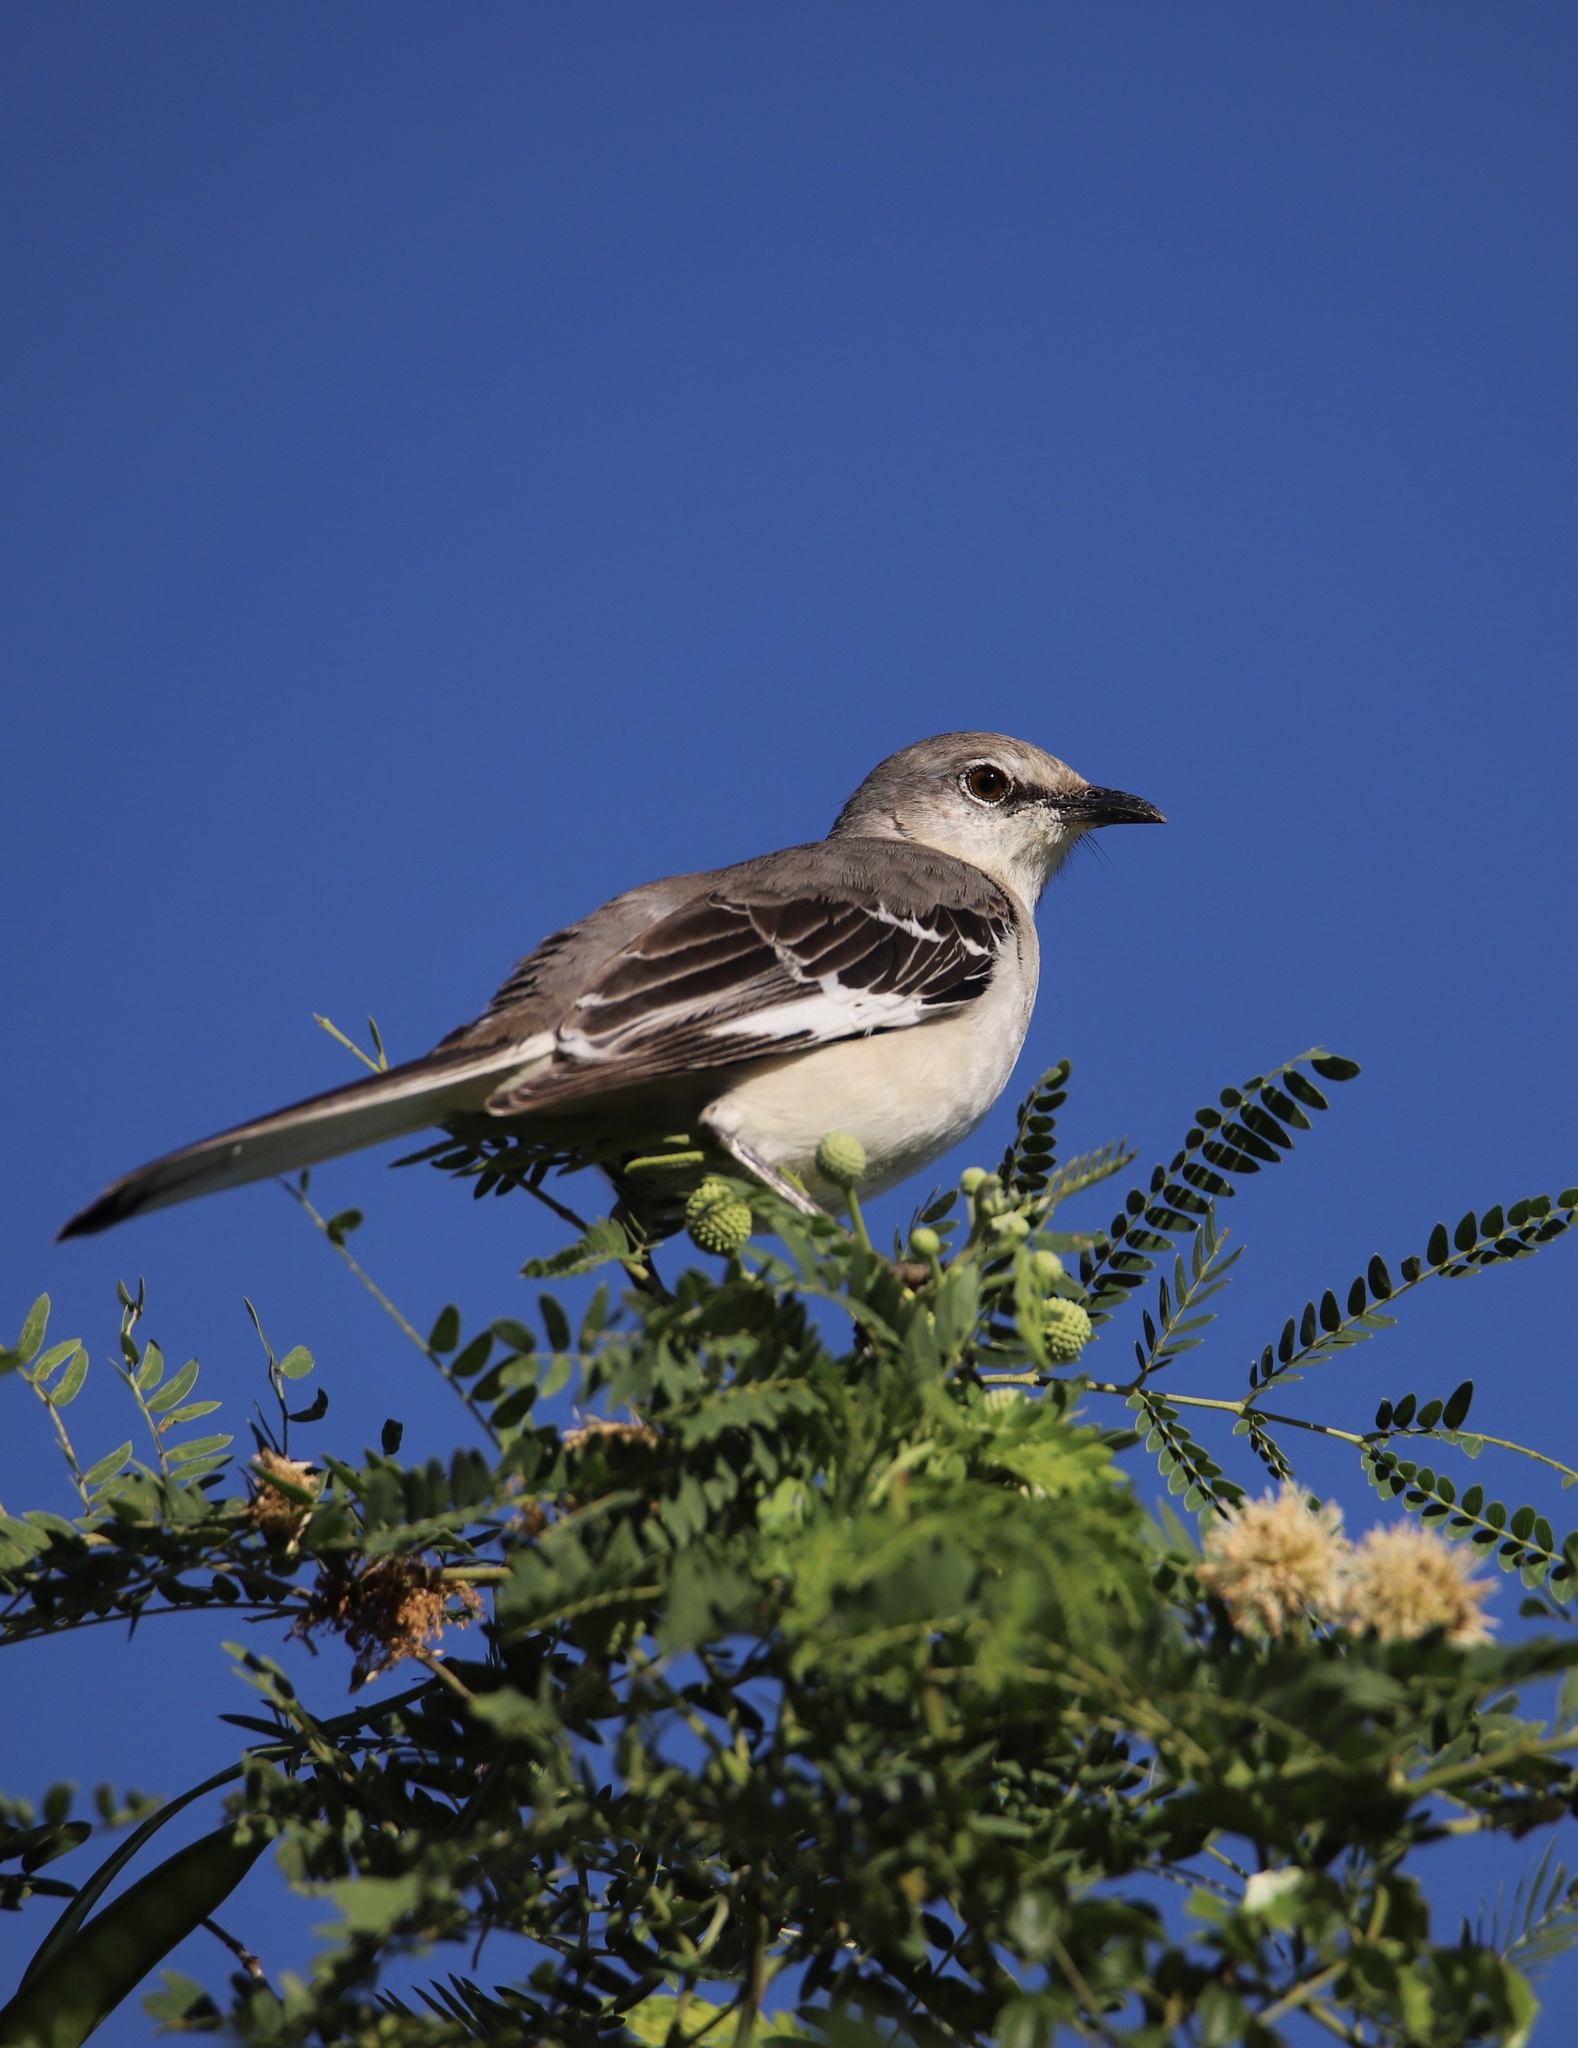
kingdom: Animalia
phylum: Chordata
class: Aves
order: Passeriformes
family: Mimidae
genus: Mimus
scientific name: Mimus polyglottos
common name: Northern mockingbird
